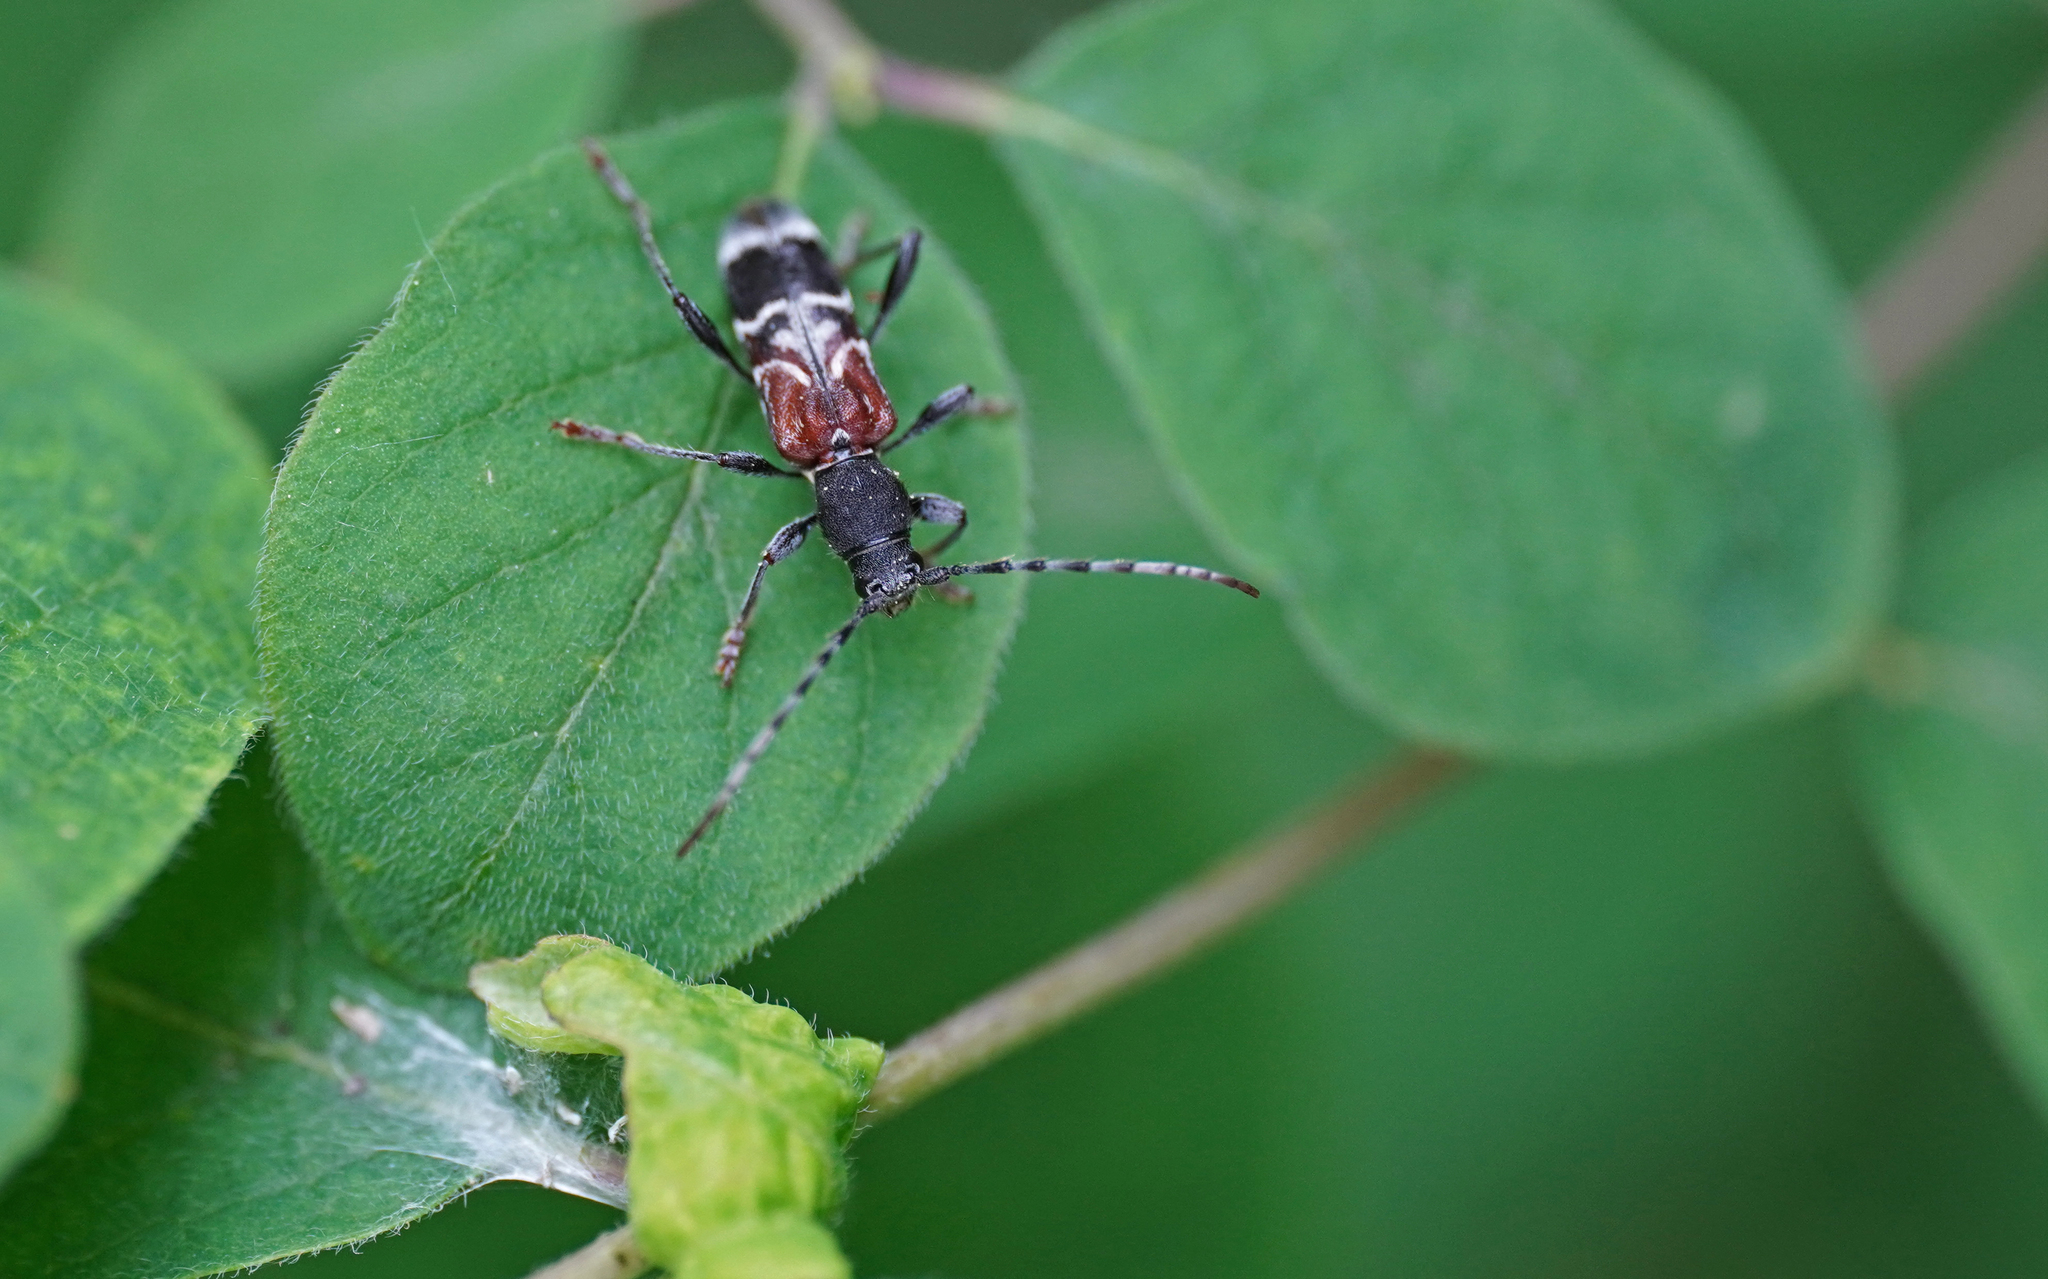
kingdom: Animalia
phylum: Arthropoda
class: Insecta
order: Coleoptera
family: Cerambycidae
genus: Anaglyptus
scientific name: Anaglyptus mysticus
